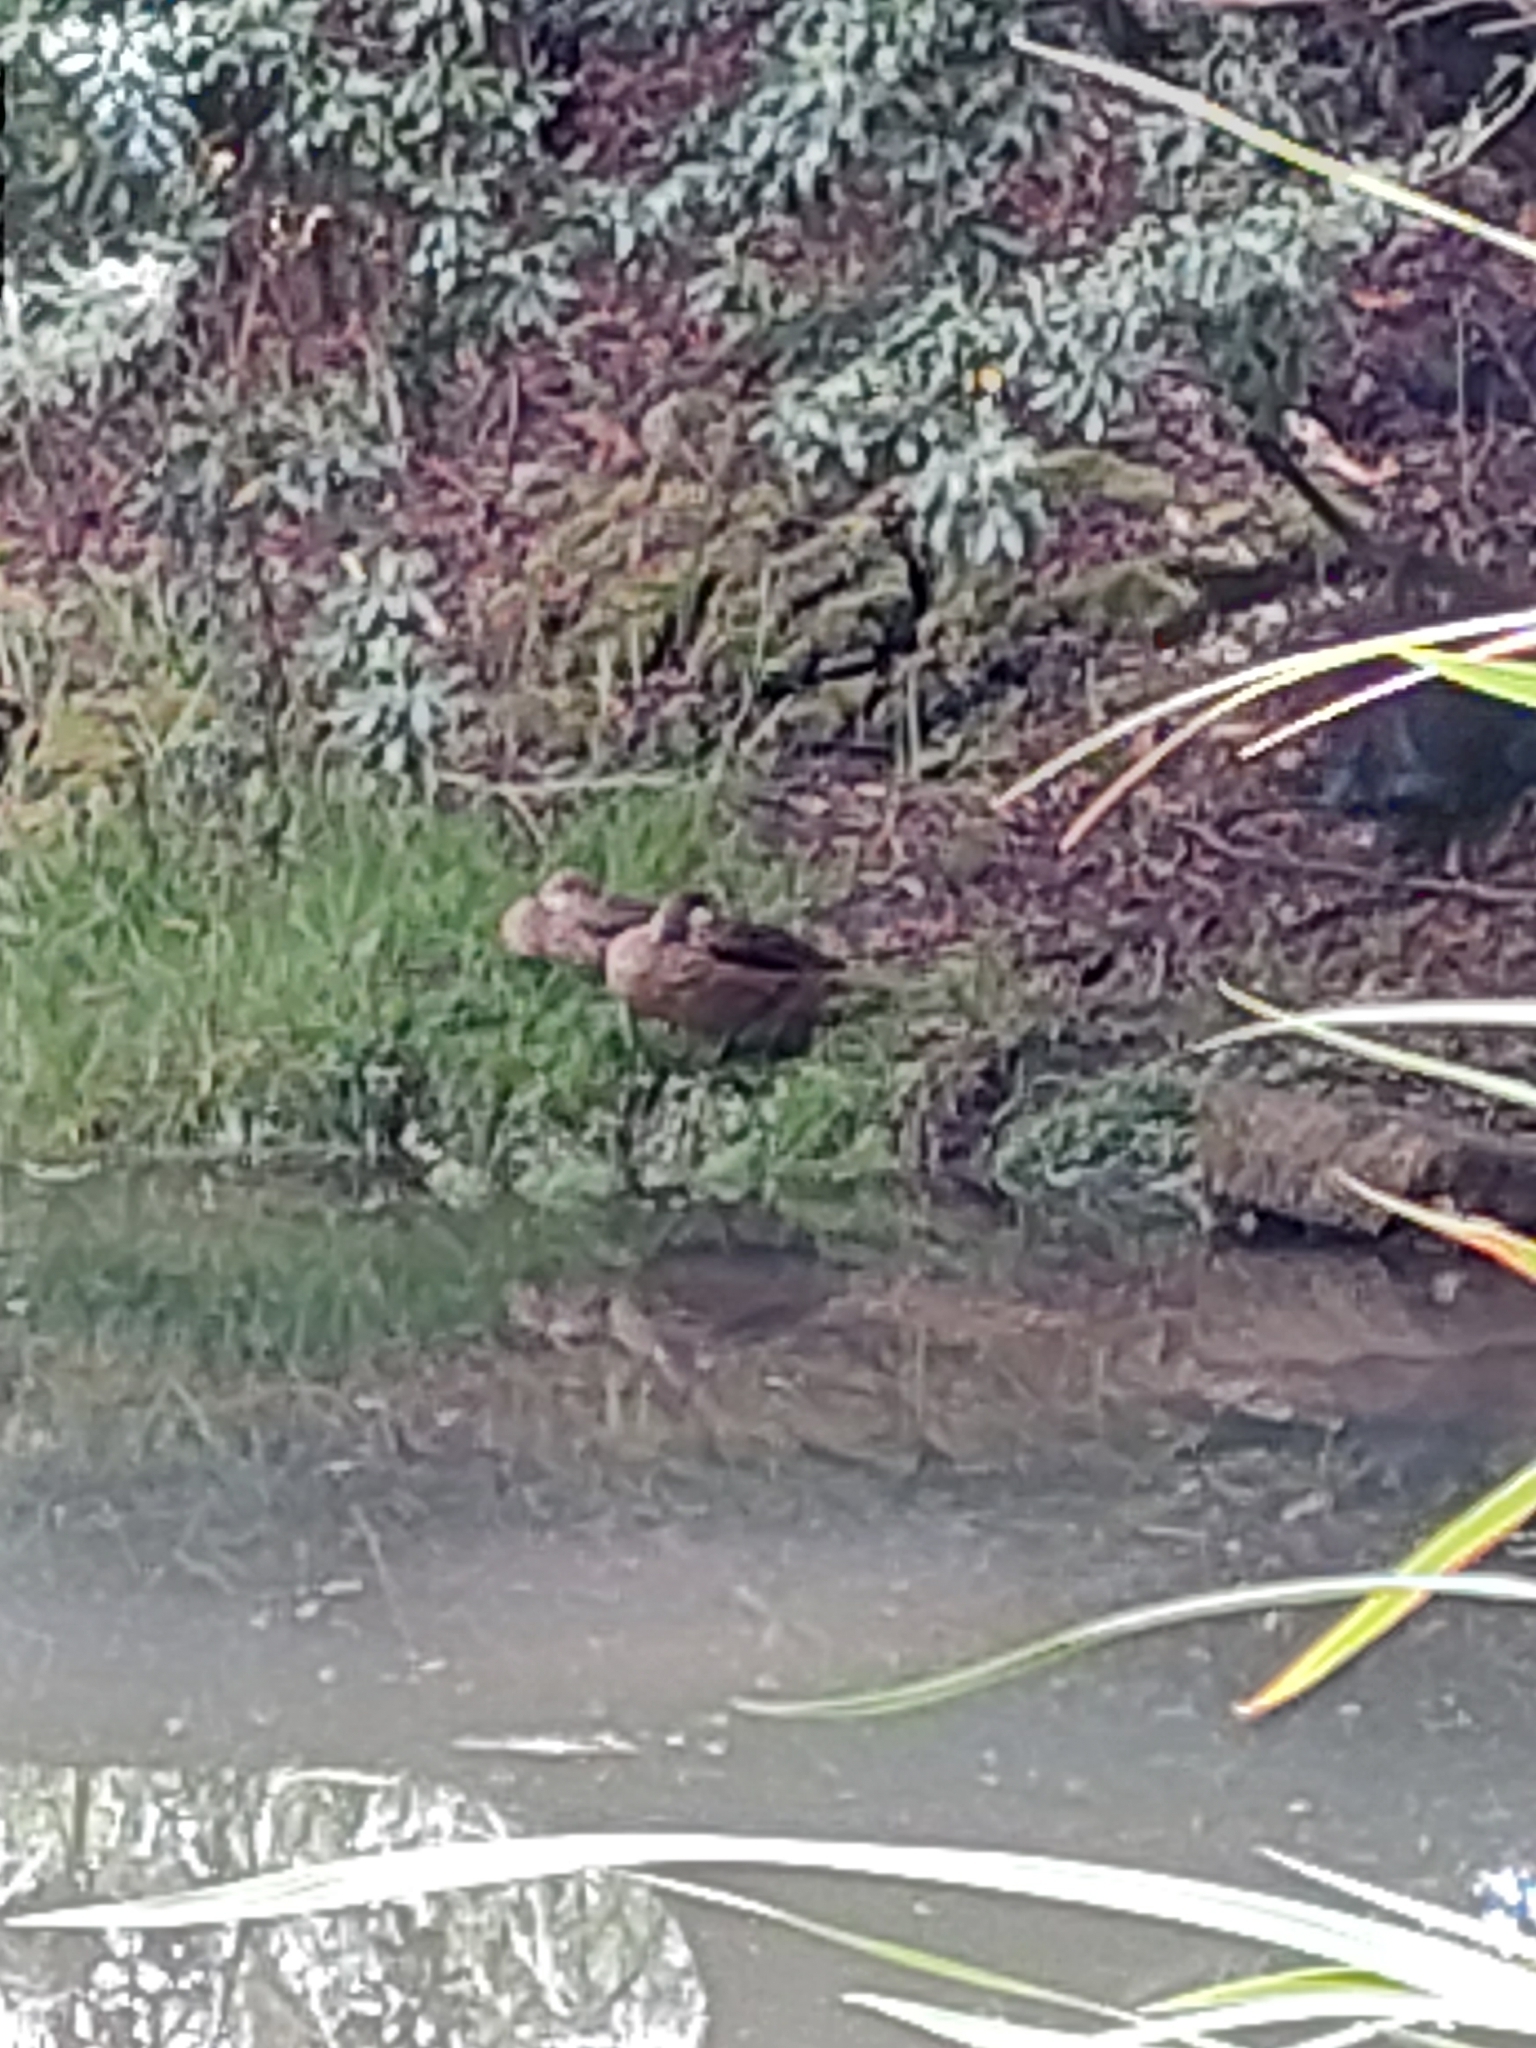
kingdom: Animalia
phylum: Chordata
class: Aves
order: Anseriformes
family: Anatidae
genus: Anas
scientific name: Anas bahamensis
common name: White-cheeked pintail
